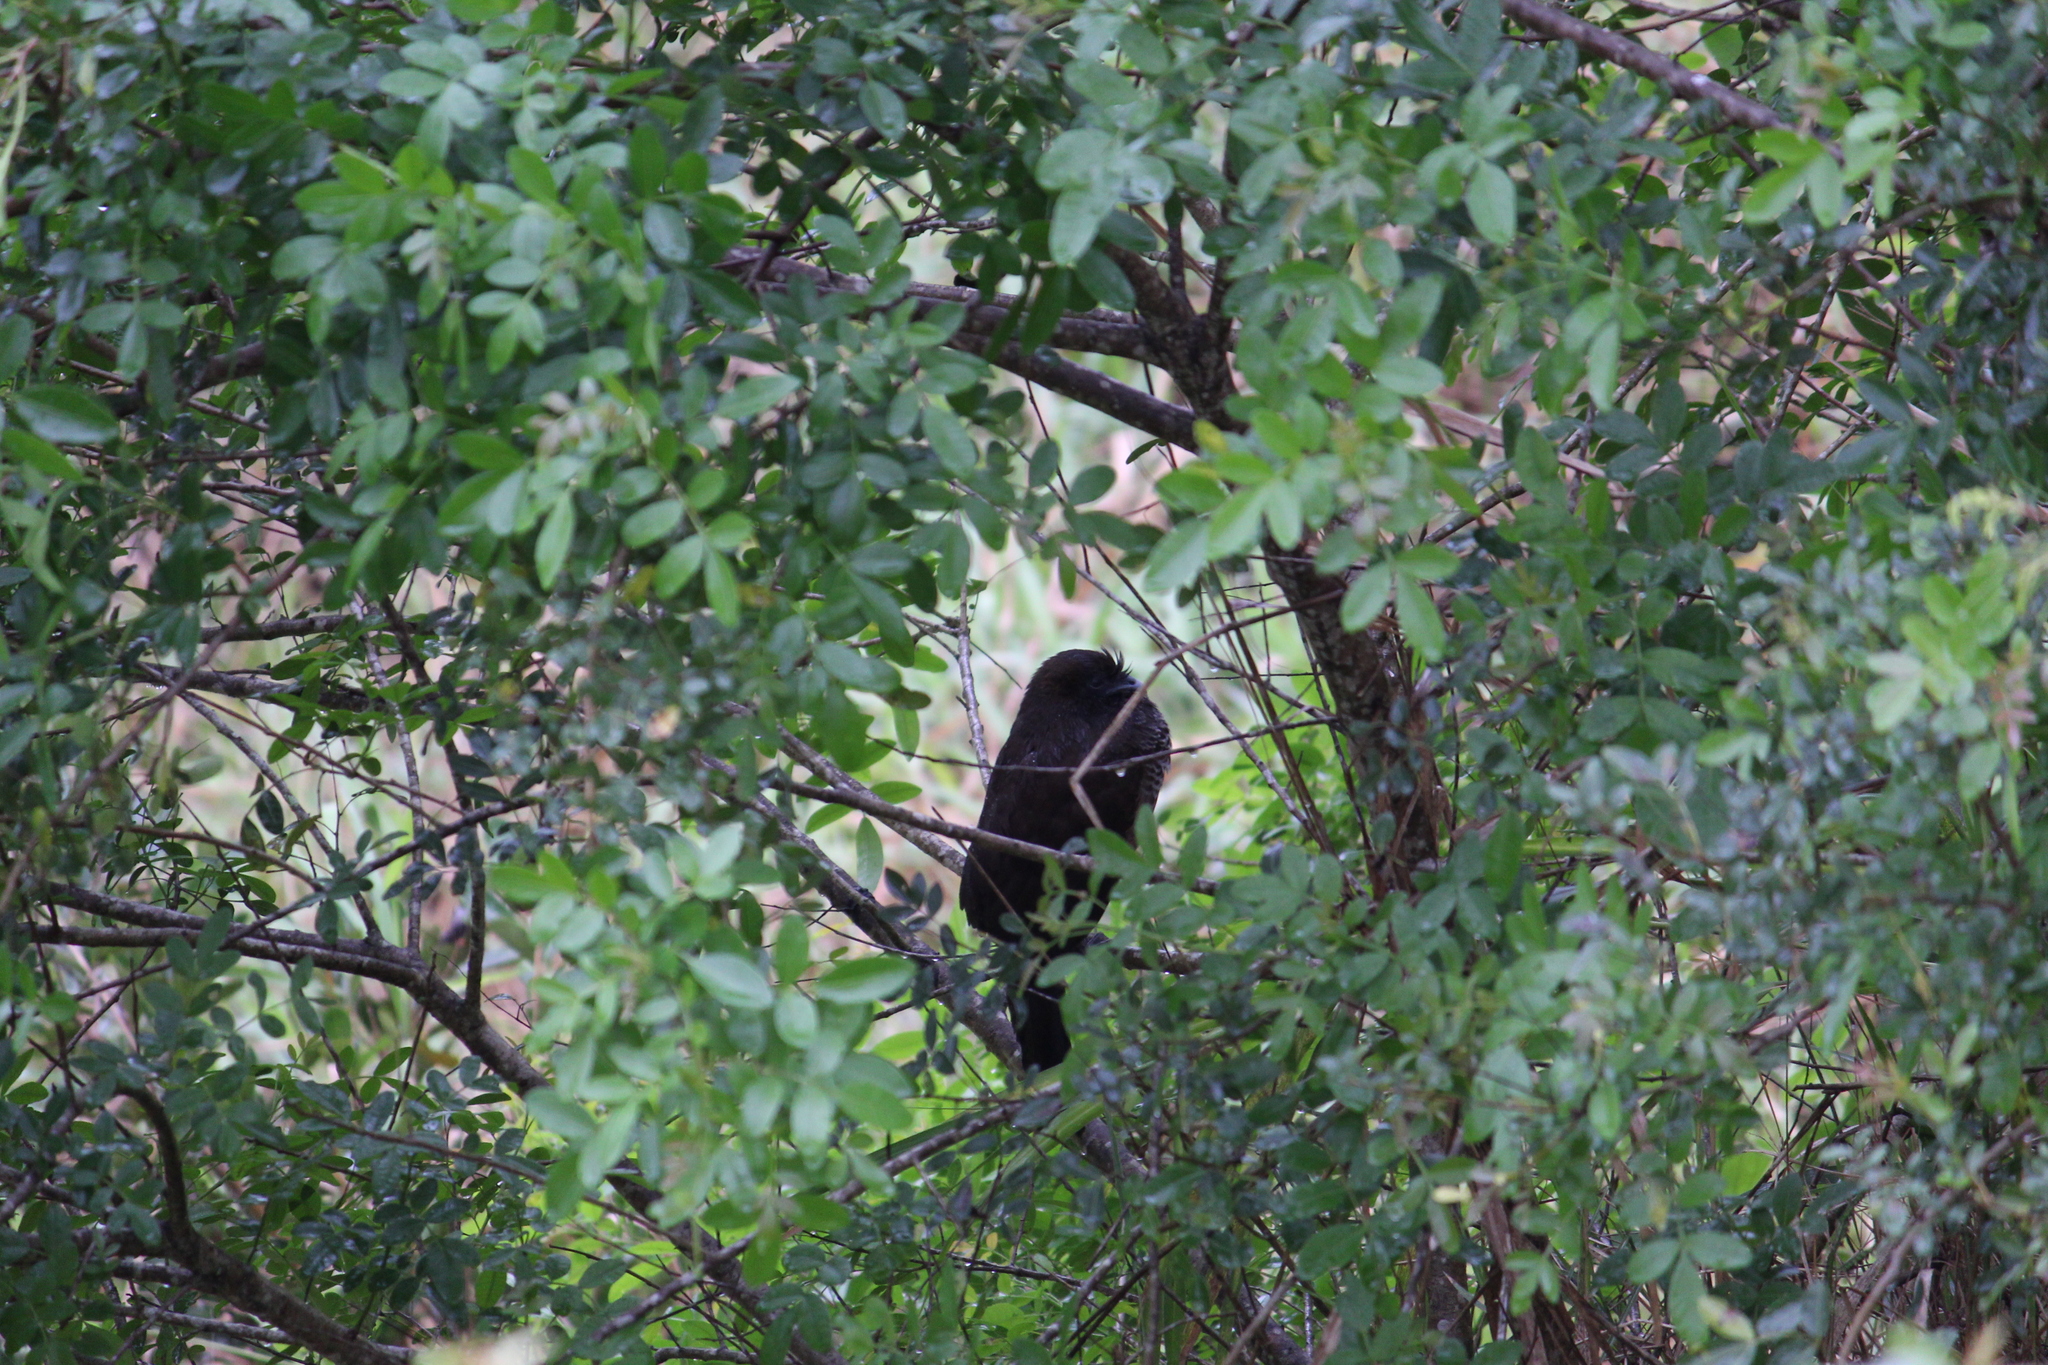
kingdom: Animalia
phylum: Chordata
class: Aves
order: Galliformes
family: Cracidae
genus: Ortalis
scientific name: Ortalis squamata
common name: Scaled chachalaca
